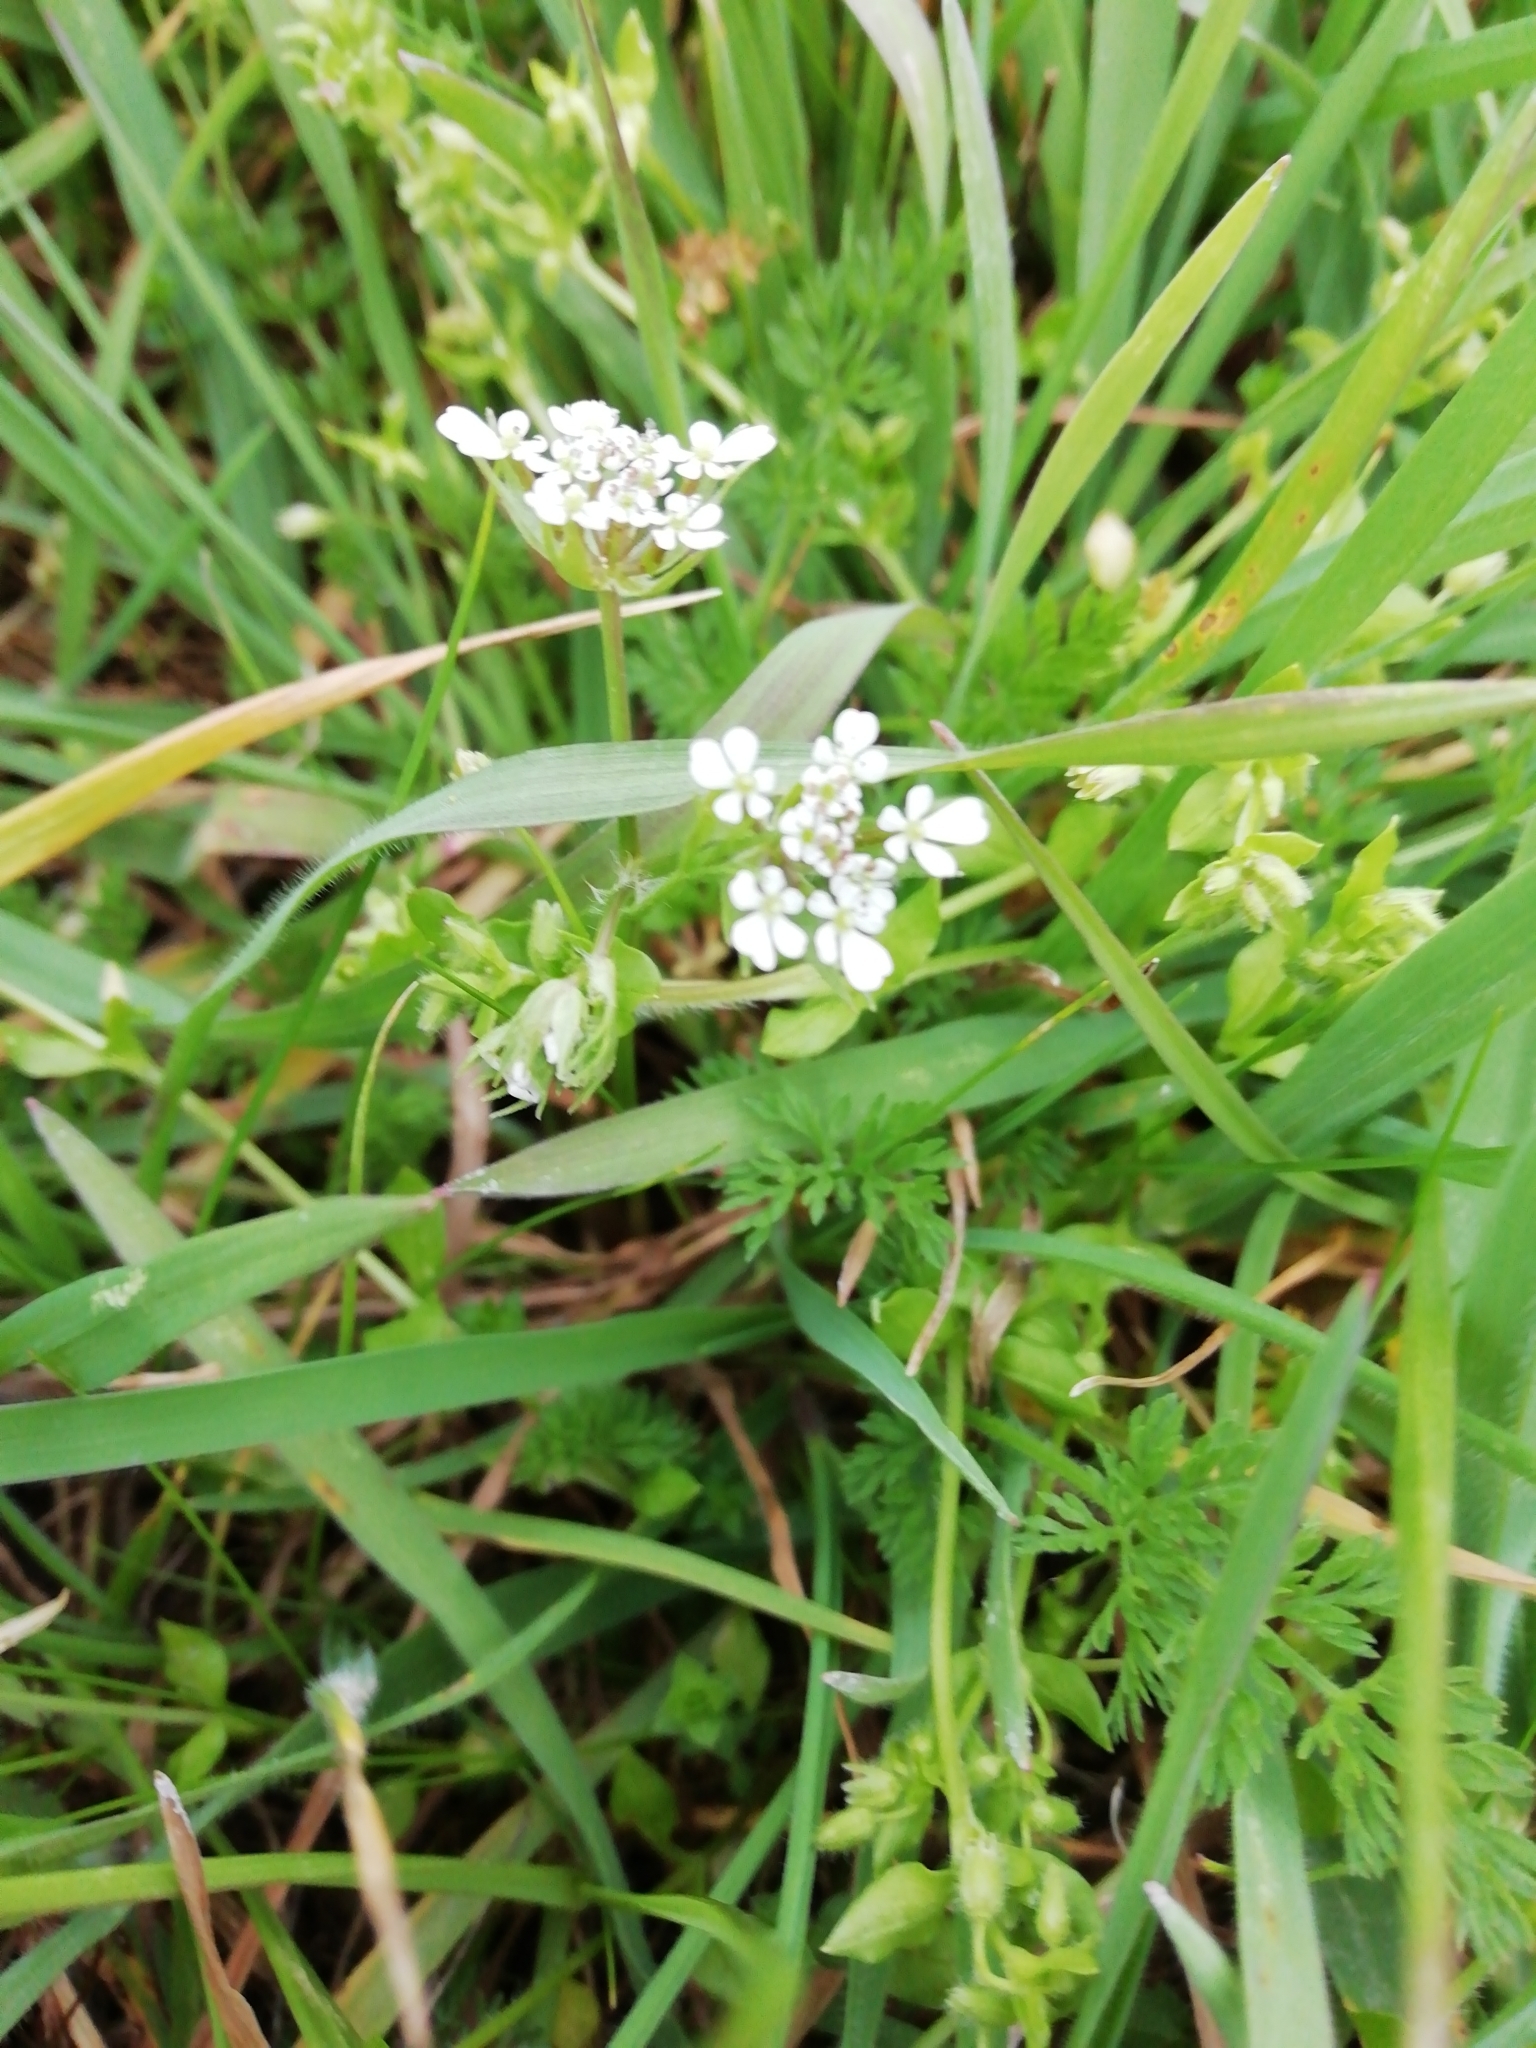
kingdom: Plantae
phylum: Tracheophyta
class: Magnoliopsida
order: Apiales
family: Apiaceae
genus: Scandix
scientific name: Scandix pecten-veneris
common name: Shepherd's-needle
